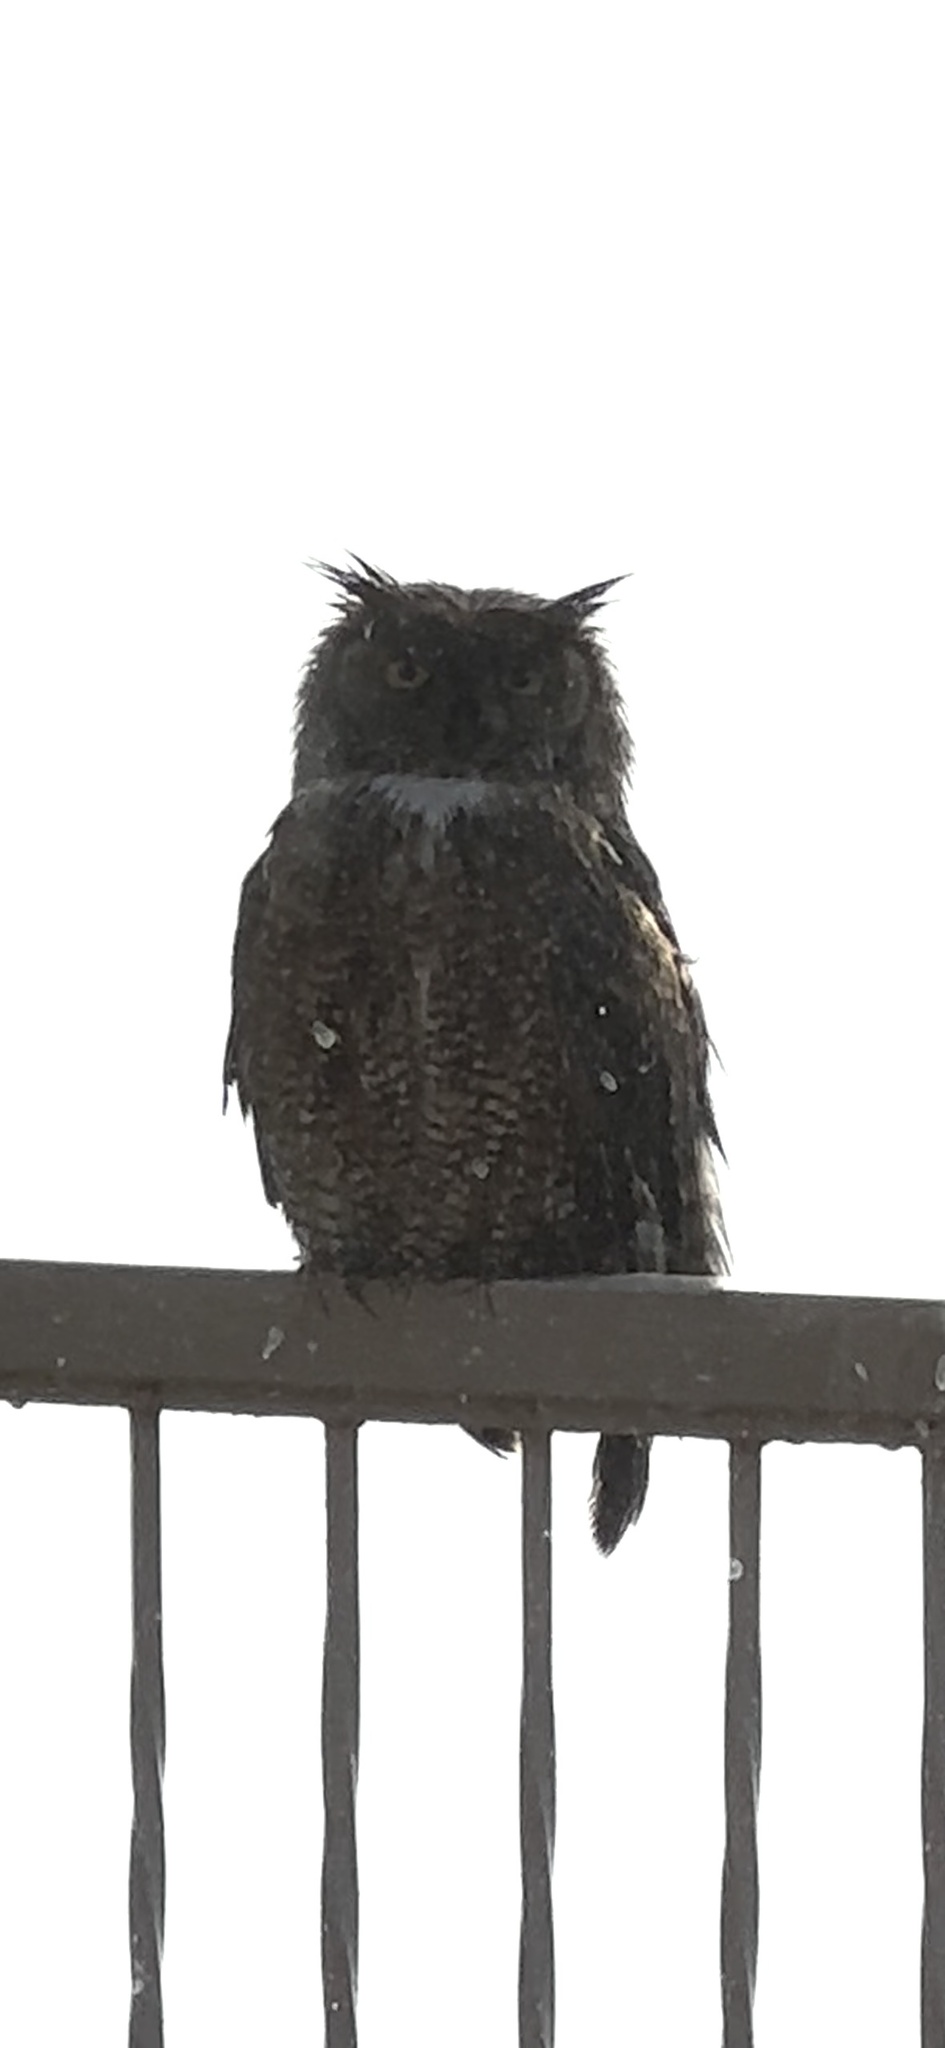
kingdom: Animalia
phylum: Chordata
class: Aves
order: Strigiformes
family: Strigidae
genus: Bubo
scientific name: Bubo virginianus
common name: Great horned owl
